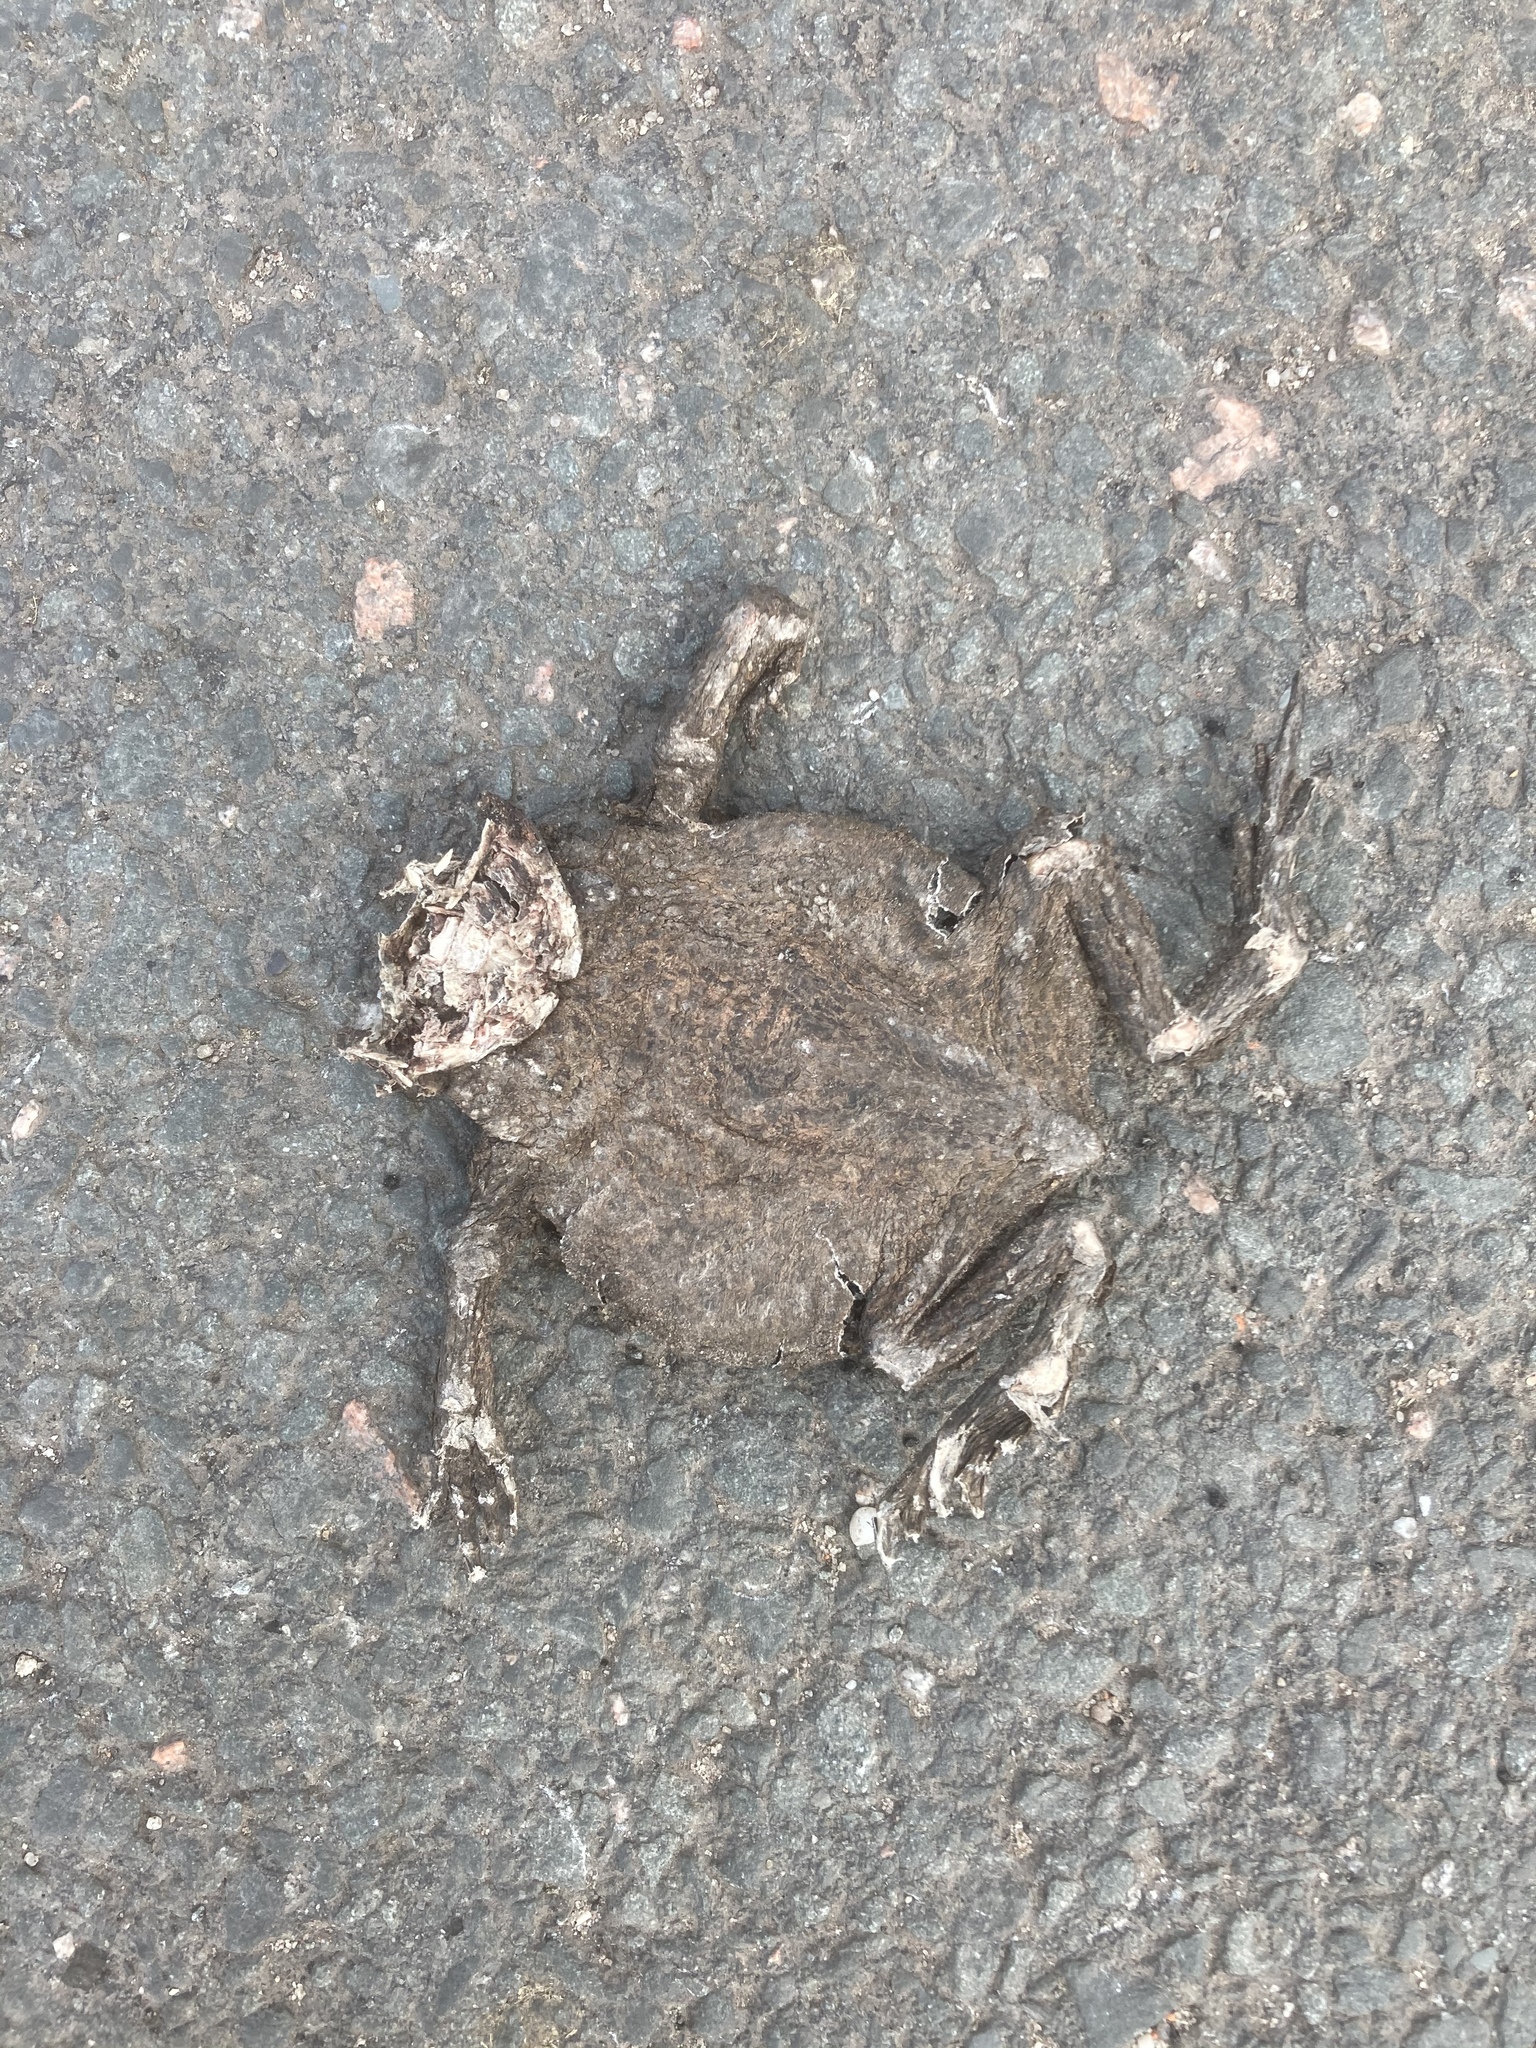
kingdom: Animalia
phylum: Chordata
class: Amphibia
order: Anura
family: Bufonidae
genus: Bufo
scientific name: Bufo bufo
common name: Common toad
